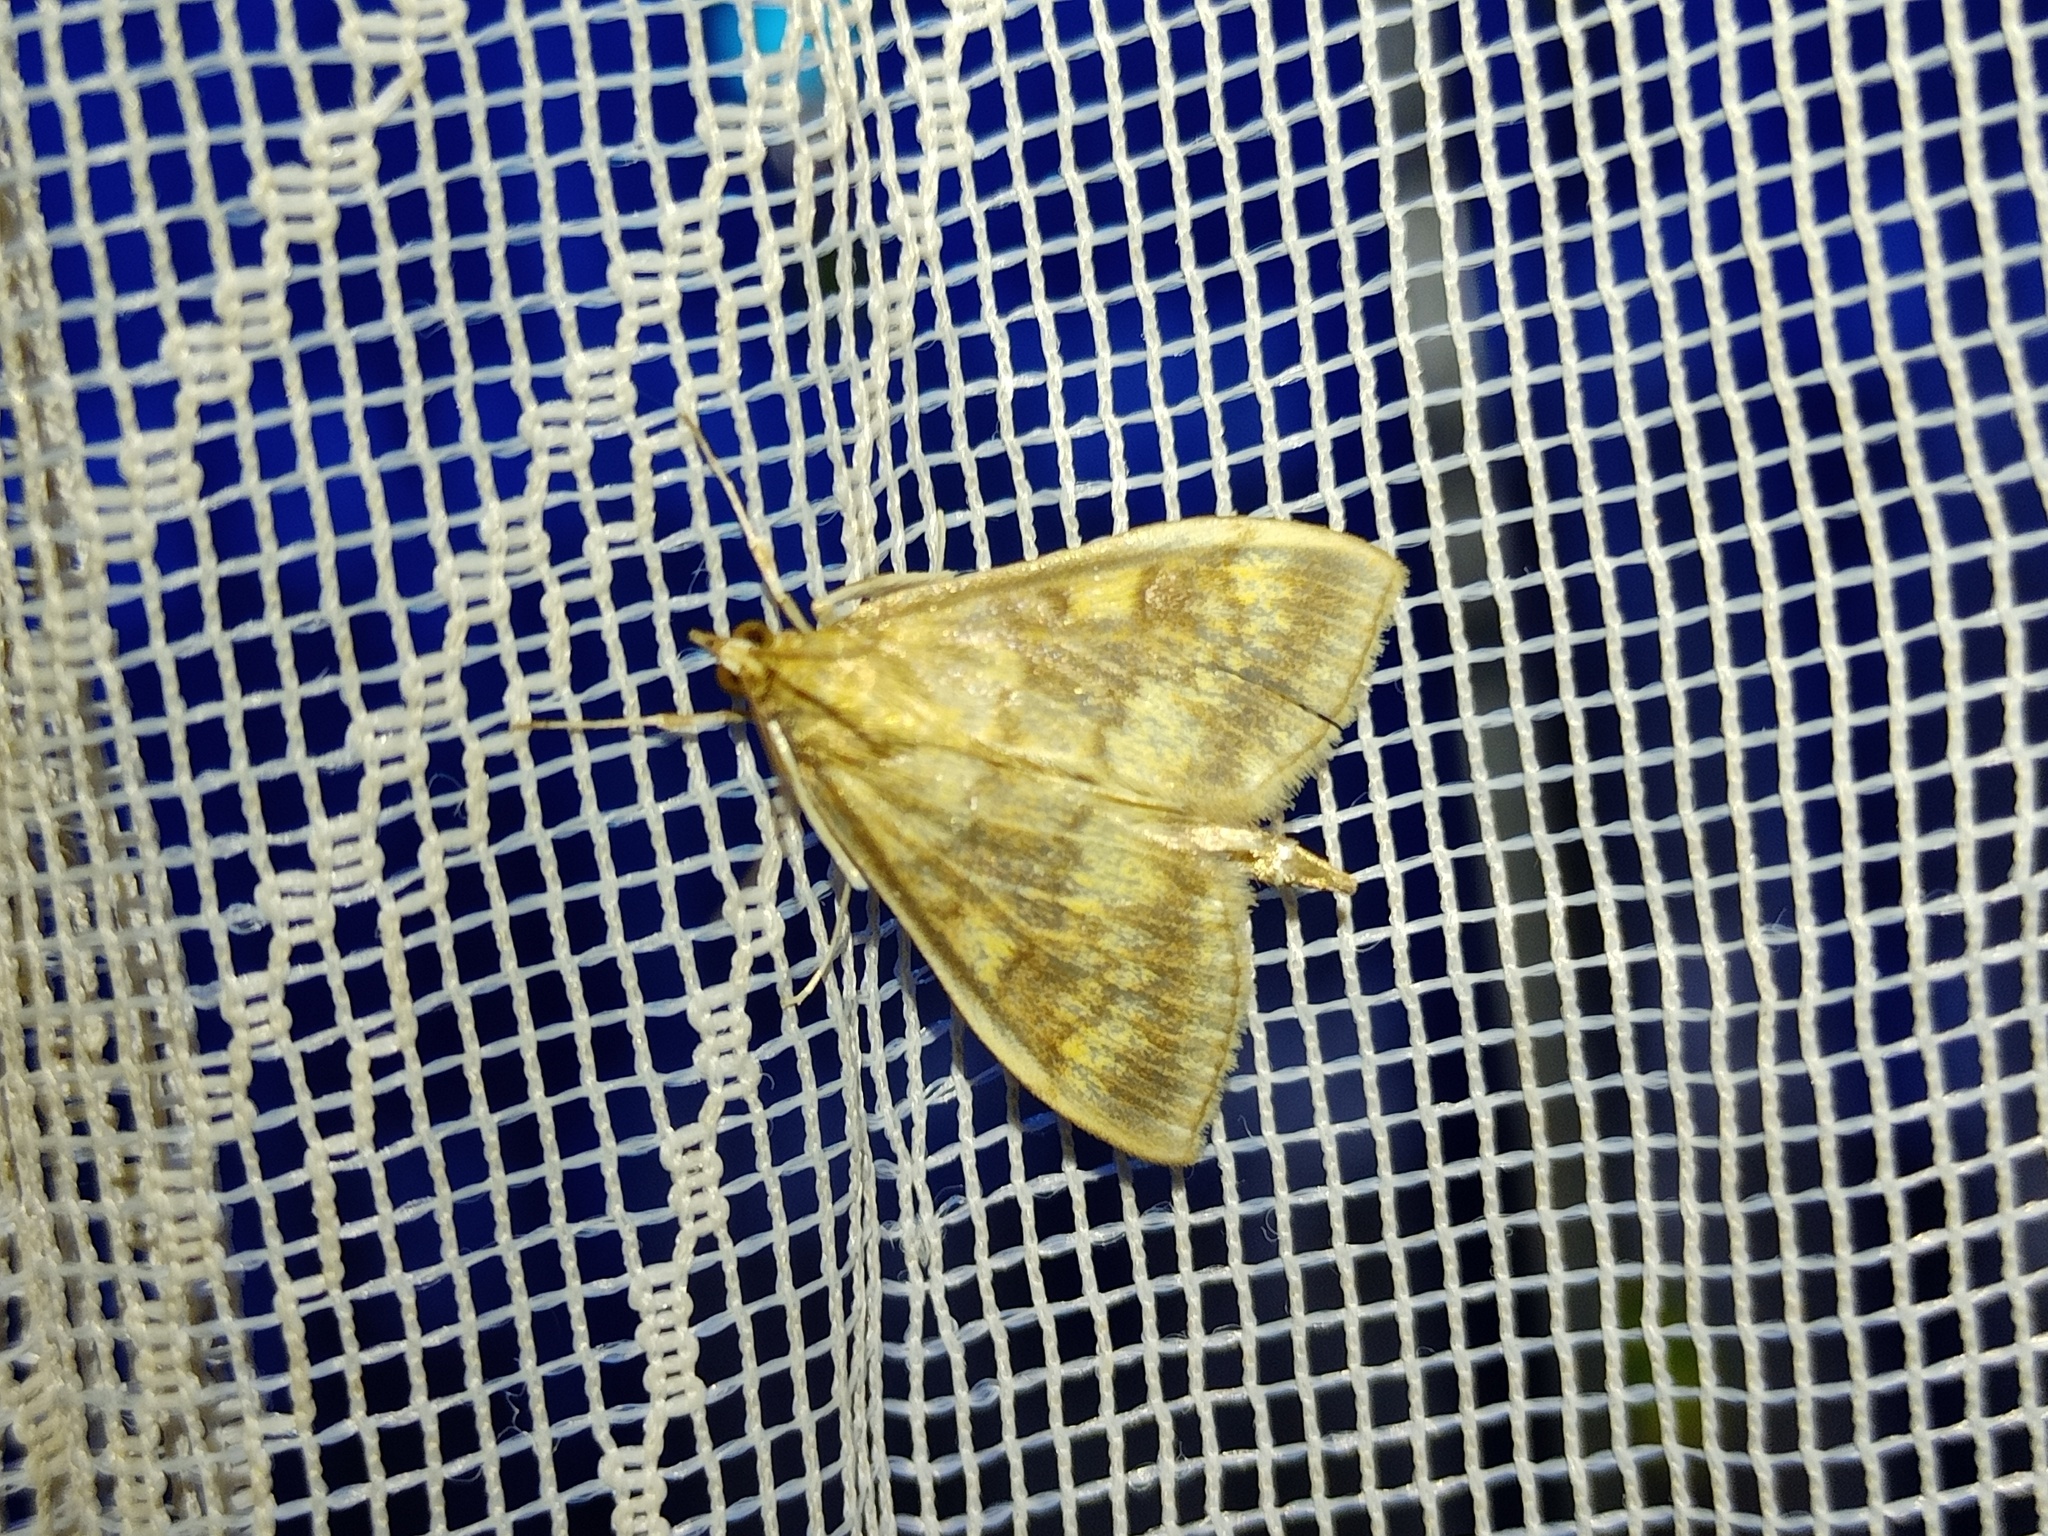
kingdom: Animalia
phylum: Arthropoda
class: Insecta
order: Lepidoptera
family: Crambidae
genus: Ostrinia
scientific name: Ostrinia nubilalis
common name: European corn borer
